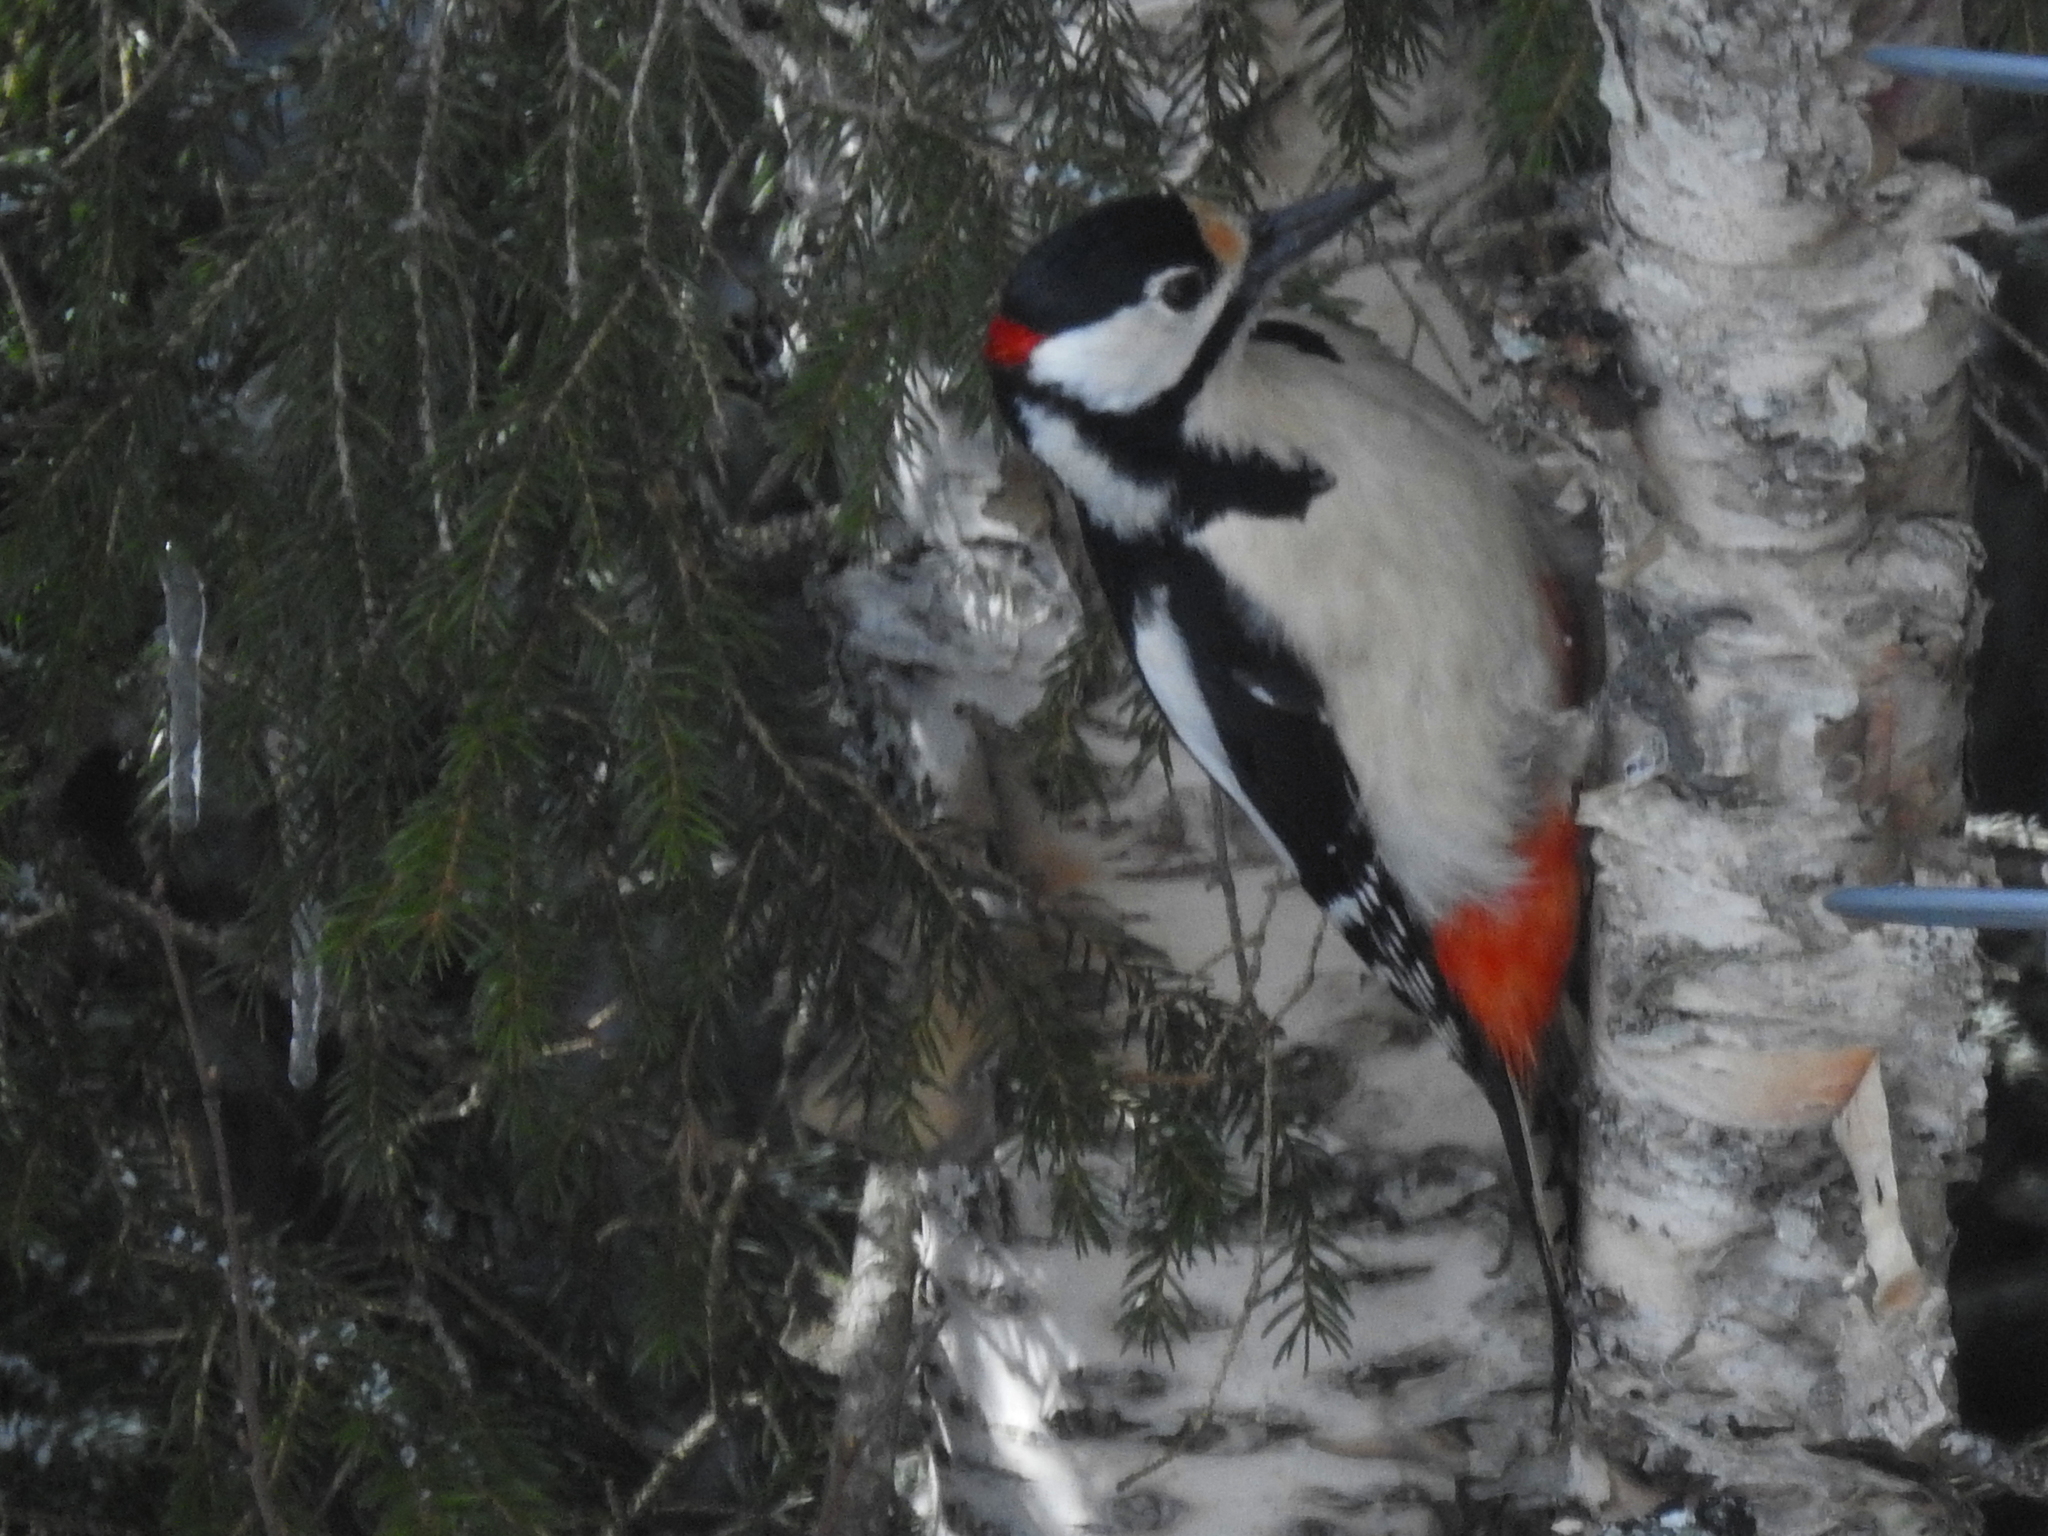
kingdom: Animalia
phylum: Chordata
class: Aves
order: Piciformes
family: Picidae
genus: Dendrocopos
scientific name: Dendrocopos major
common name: Great spotted woodpecker
